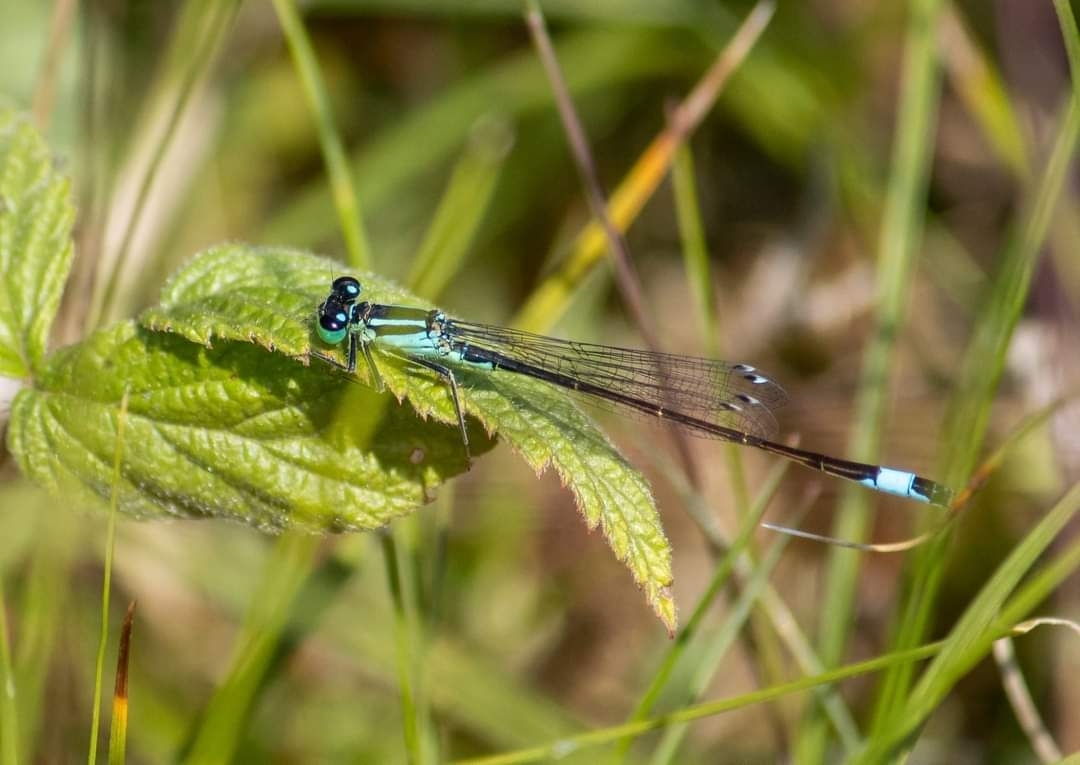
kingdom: Animalia
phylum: Arthropoda
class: Insecta
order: Odonata
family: Coenagrionidae
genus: Ischnura
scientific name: Ischnura elegans
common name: Blue-tailed damselfly
